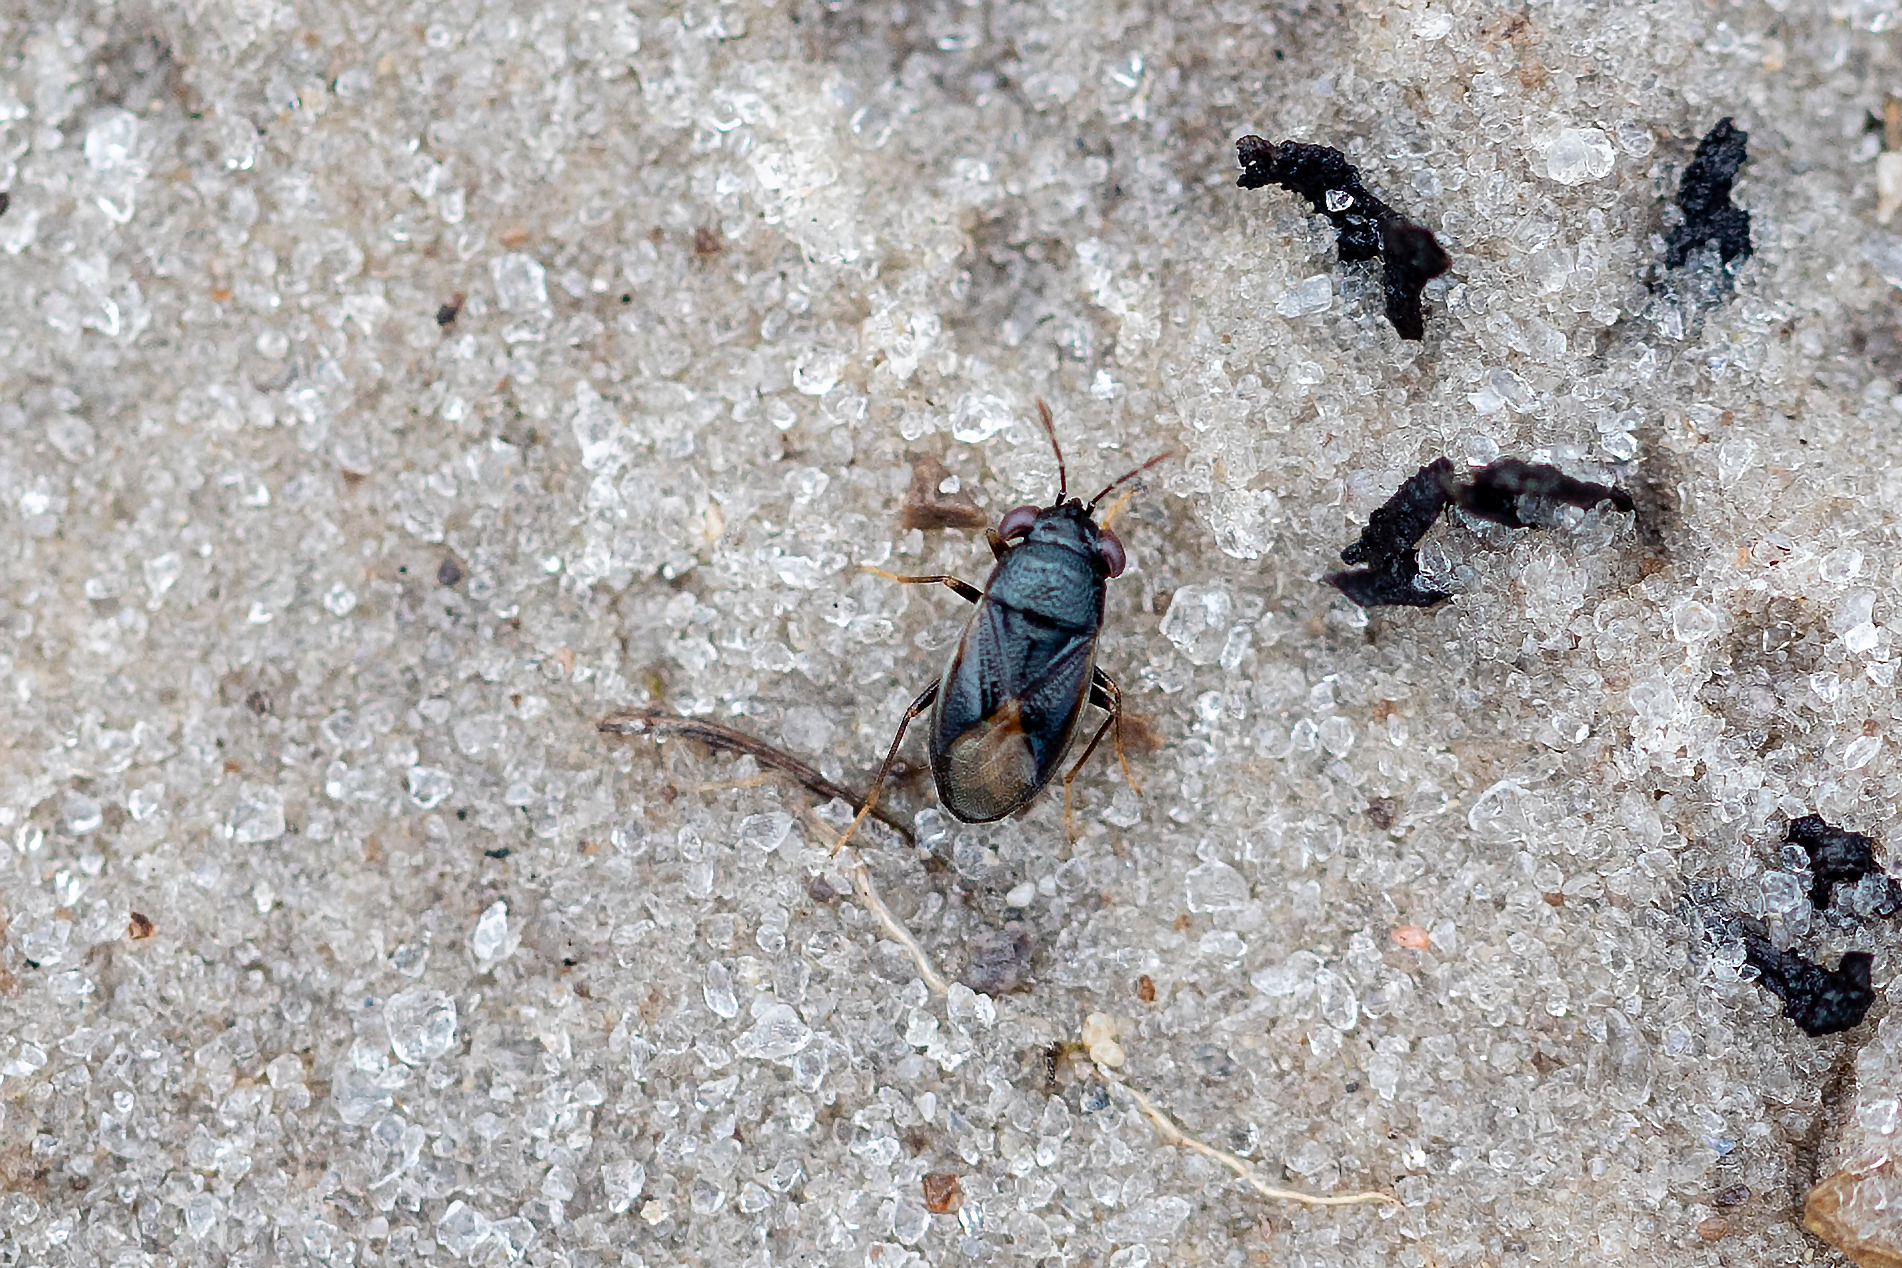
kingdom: Animalia
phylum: Arthropoda
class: Insecta
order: Hemiptera
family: Geocoridae
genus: Geocoris
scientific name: Geocoris uliginosus
